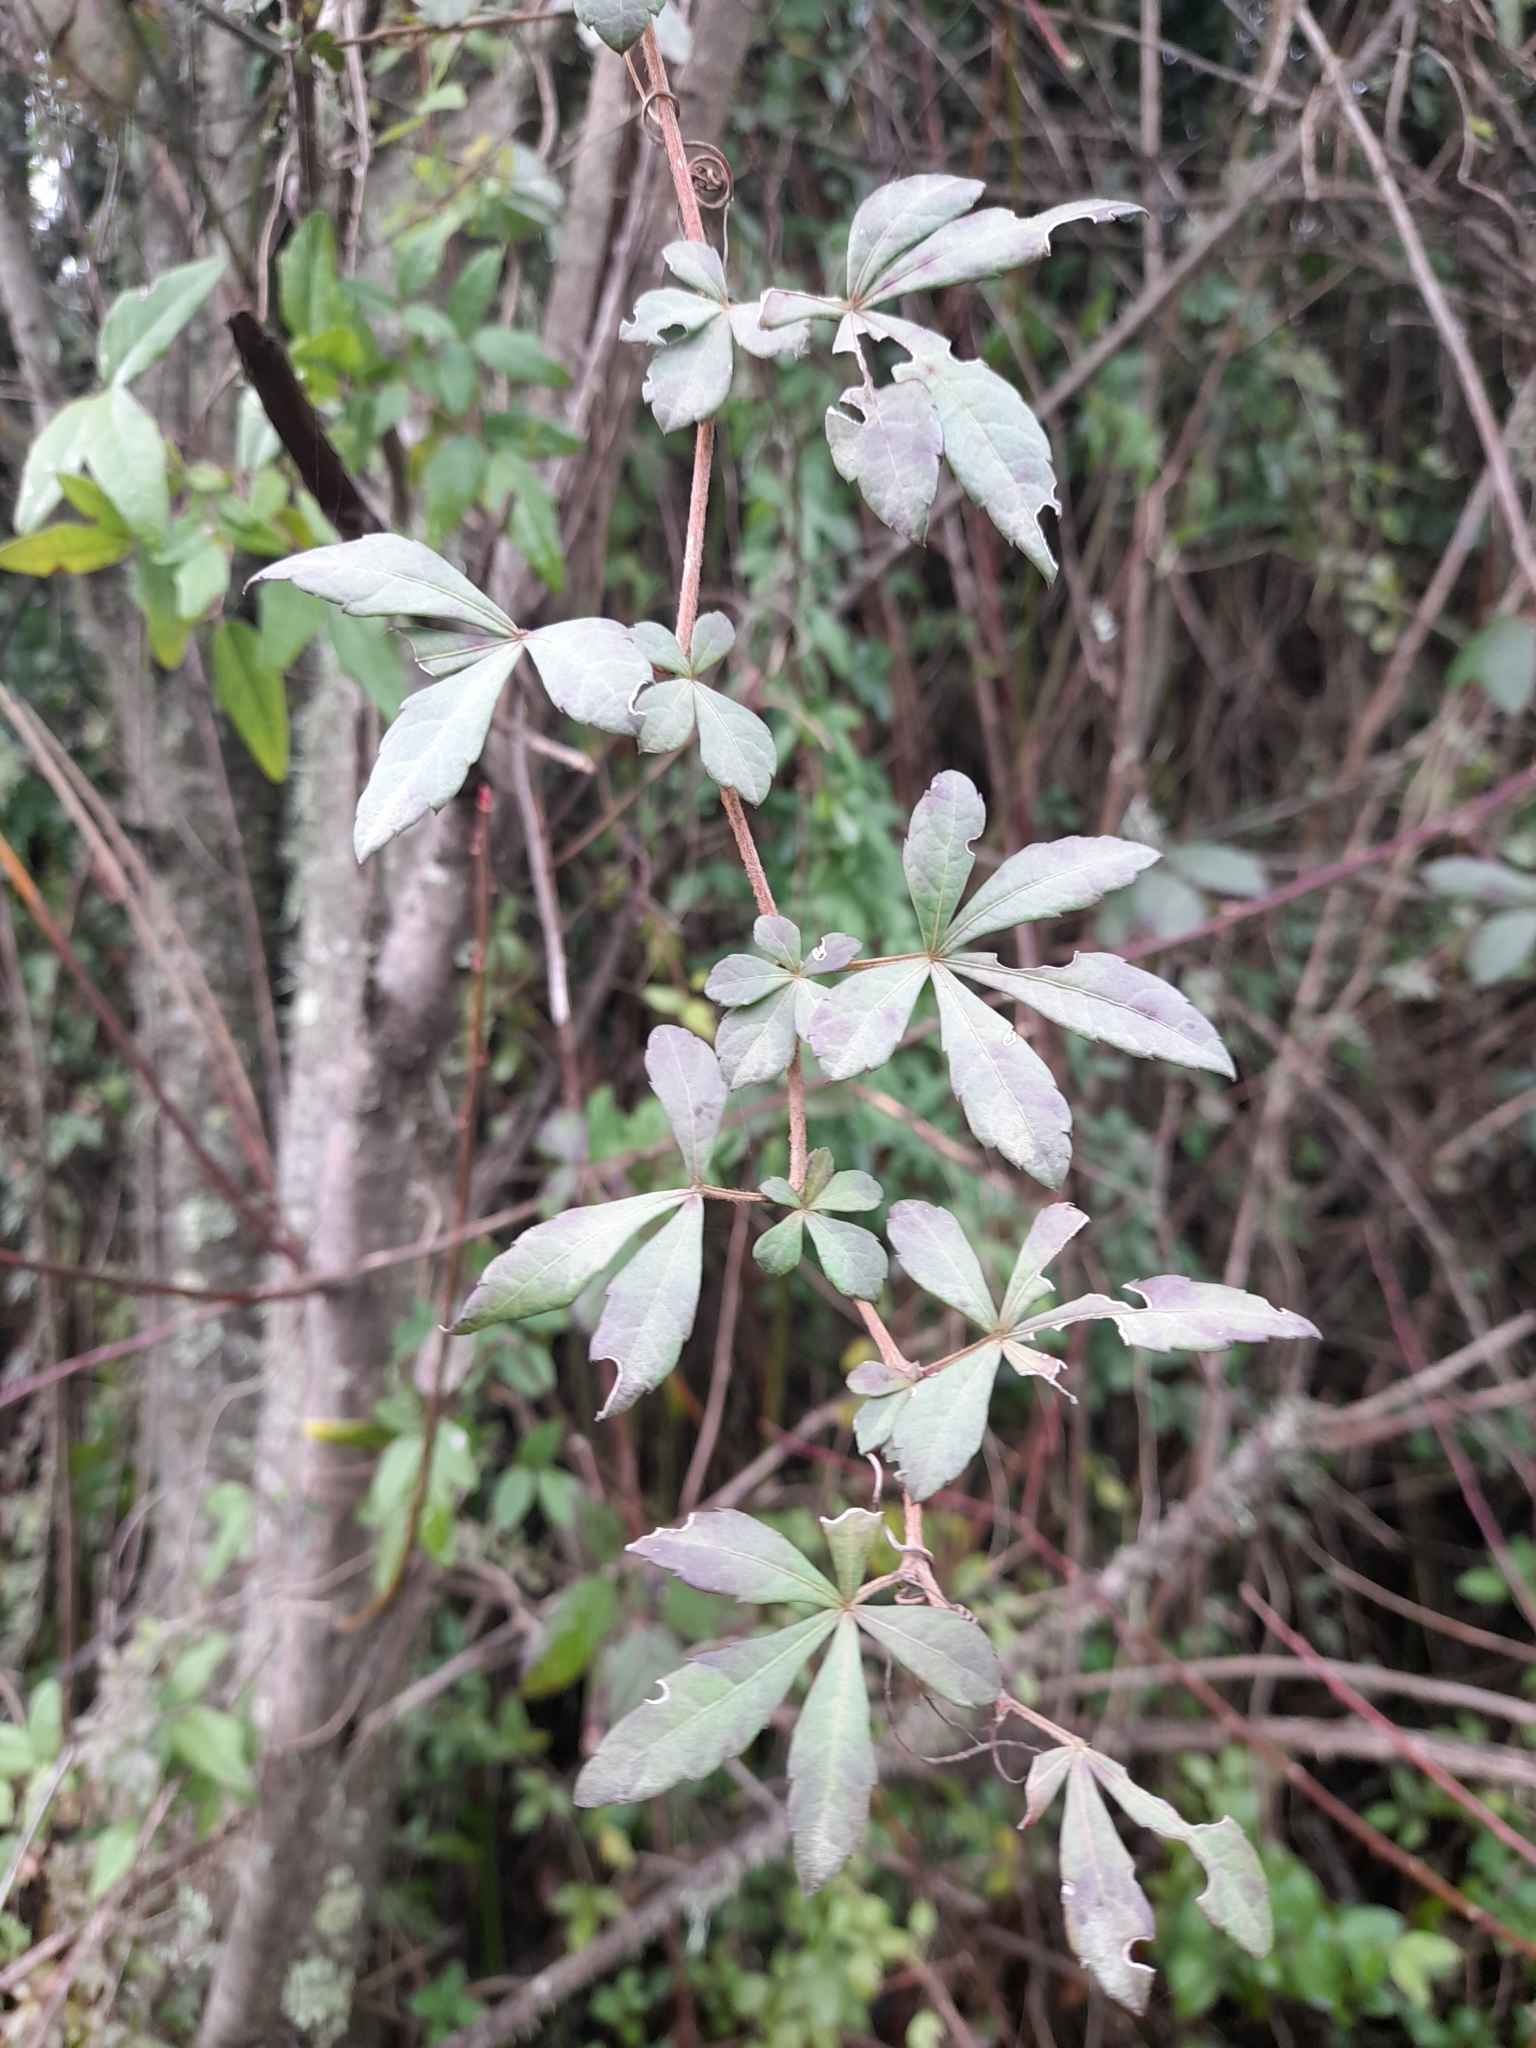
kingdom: Plantae
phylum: Tracheophyta
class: Magnoliopsida
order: Vitales
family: Vitaceae
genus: Clematicissus
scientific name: Clematicissus striata
